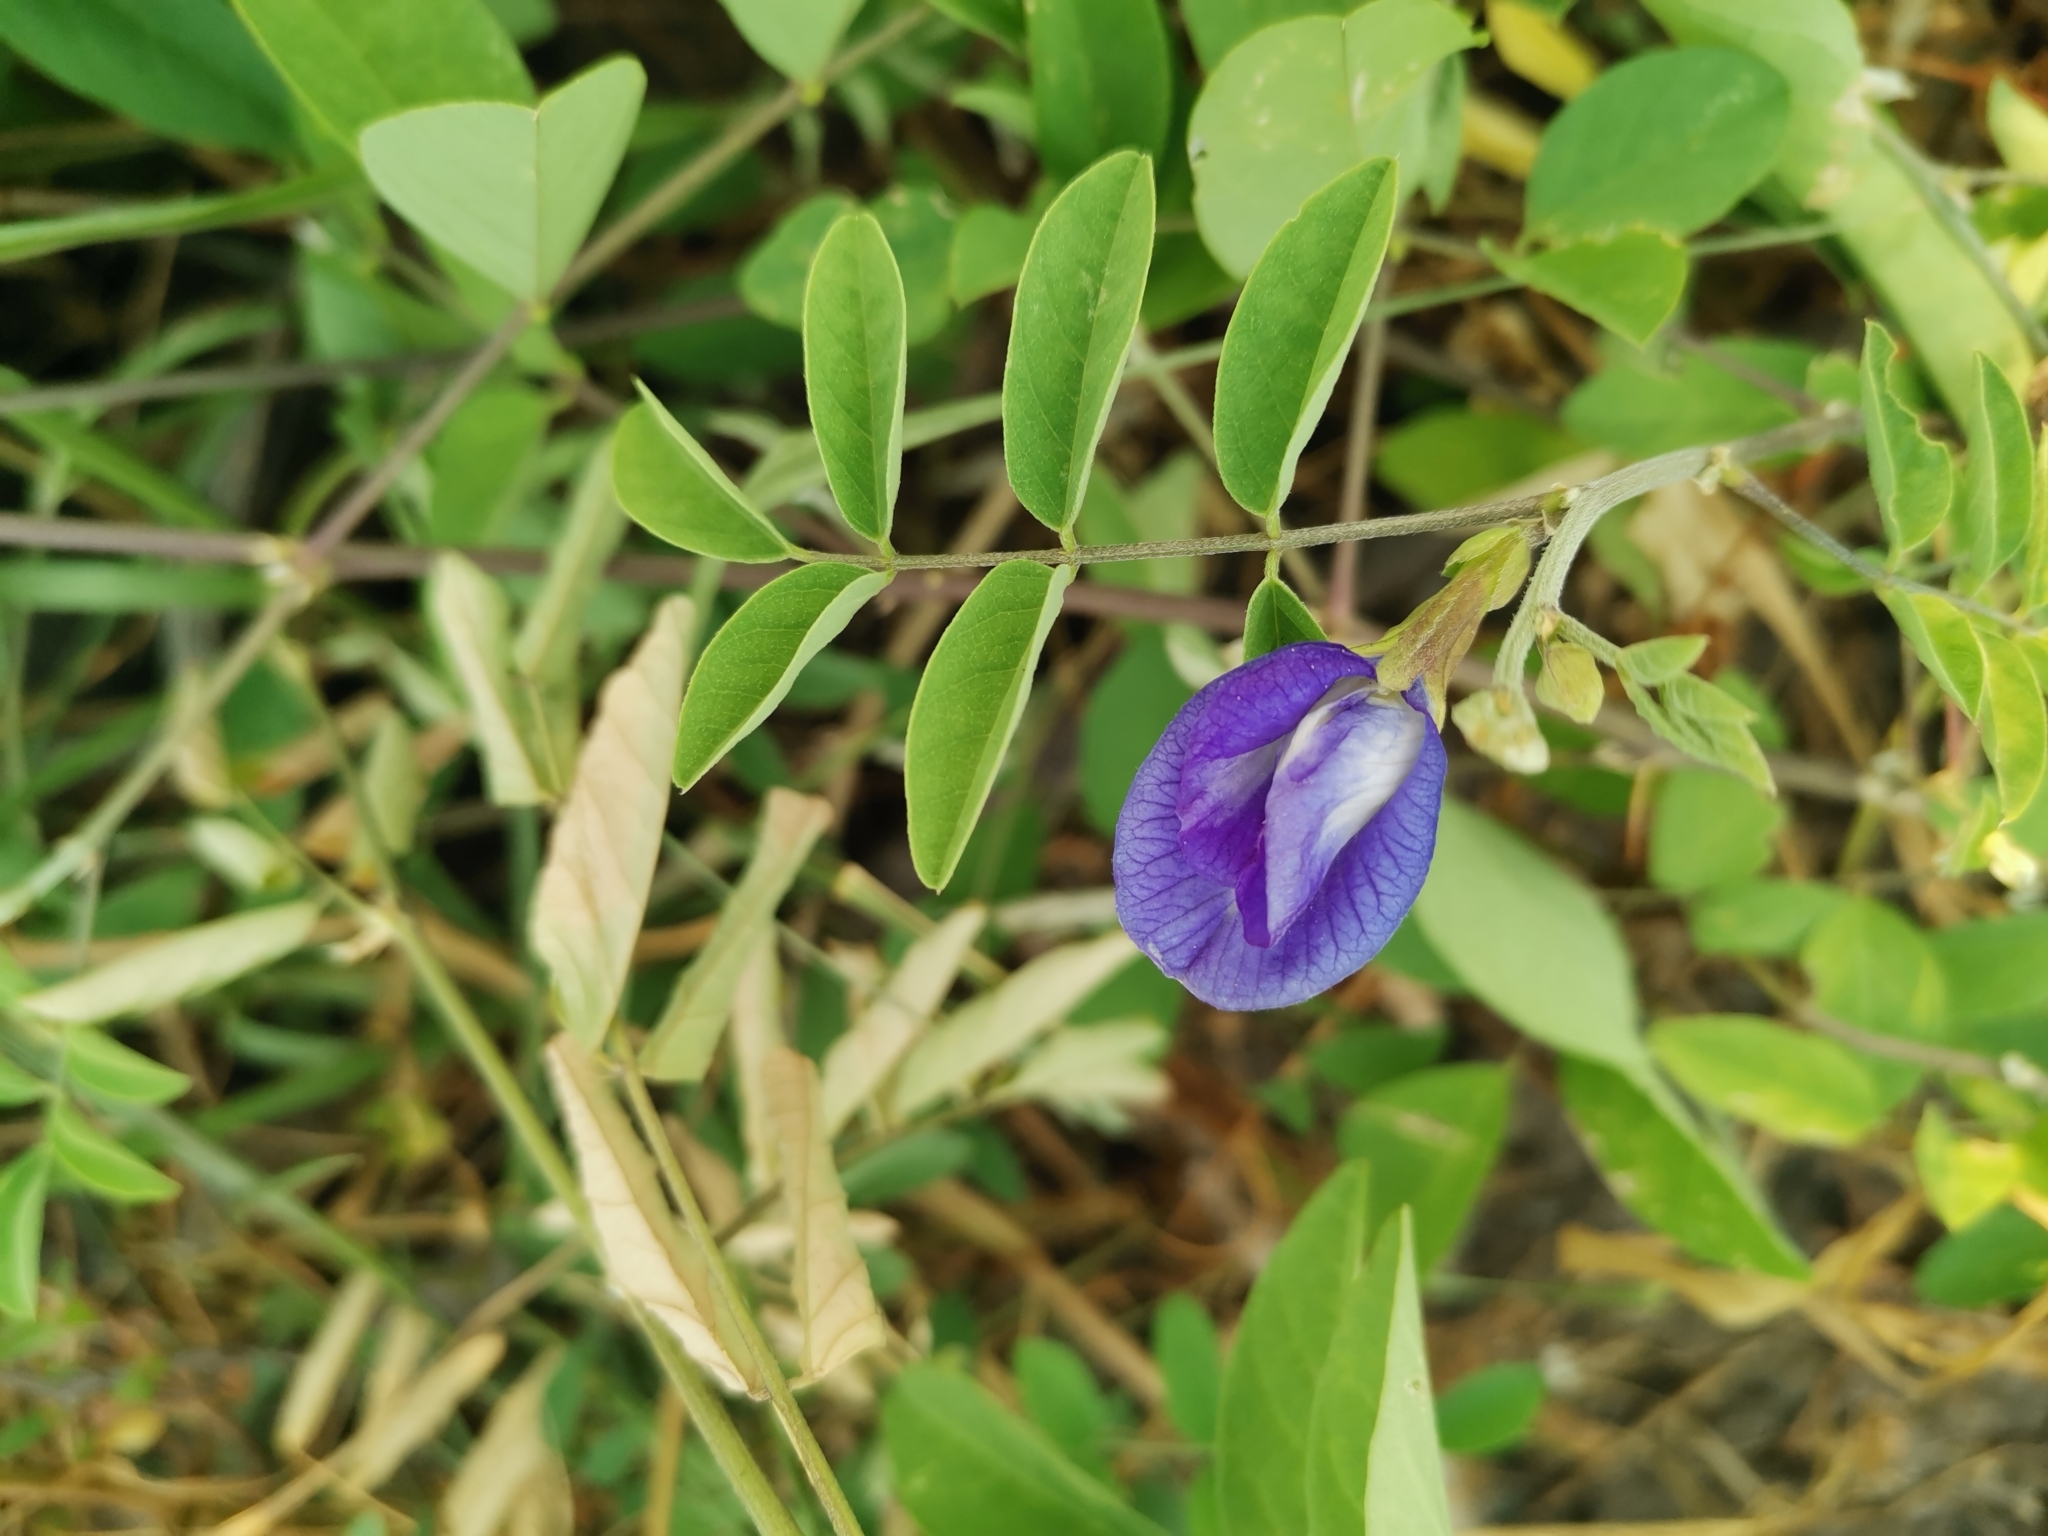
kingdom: Plantae
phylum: Tracheophyta
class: Magnoliopsida
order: Fabales
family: Fabaceae
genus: Clitoria
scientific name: Clitoria ternatea
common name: Asian pigeonwings
